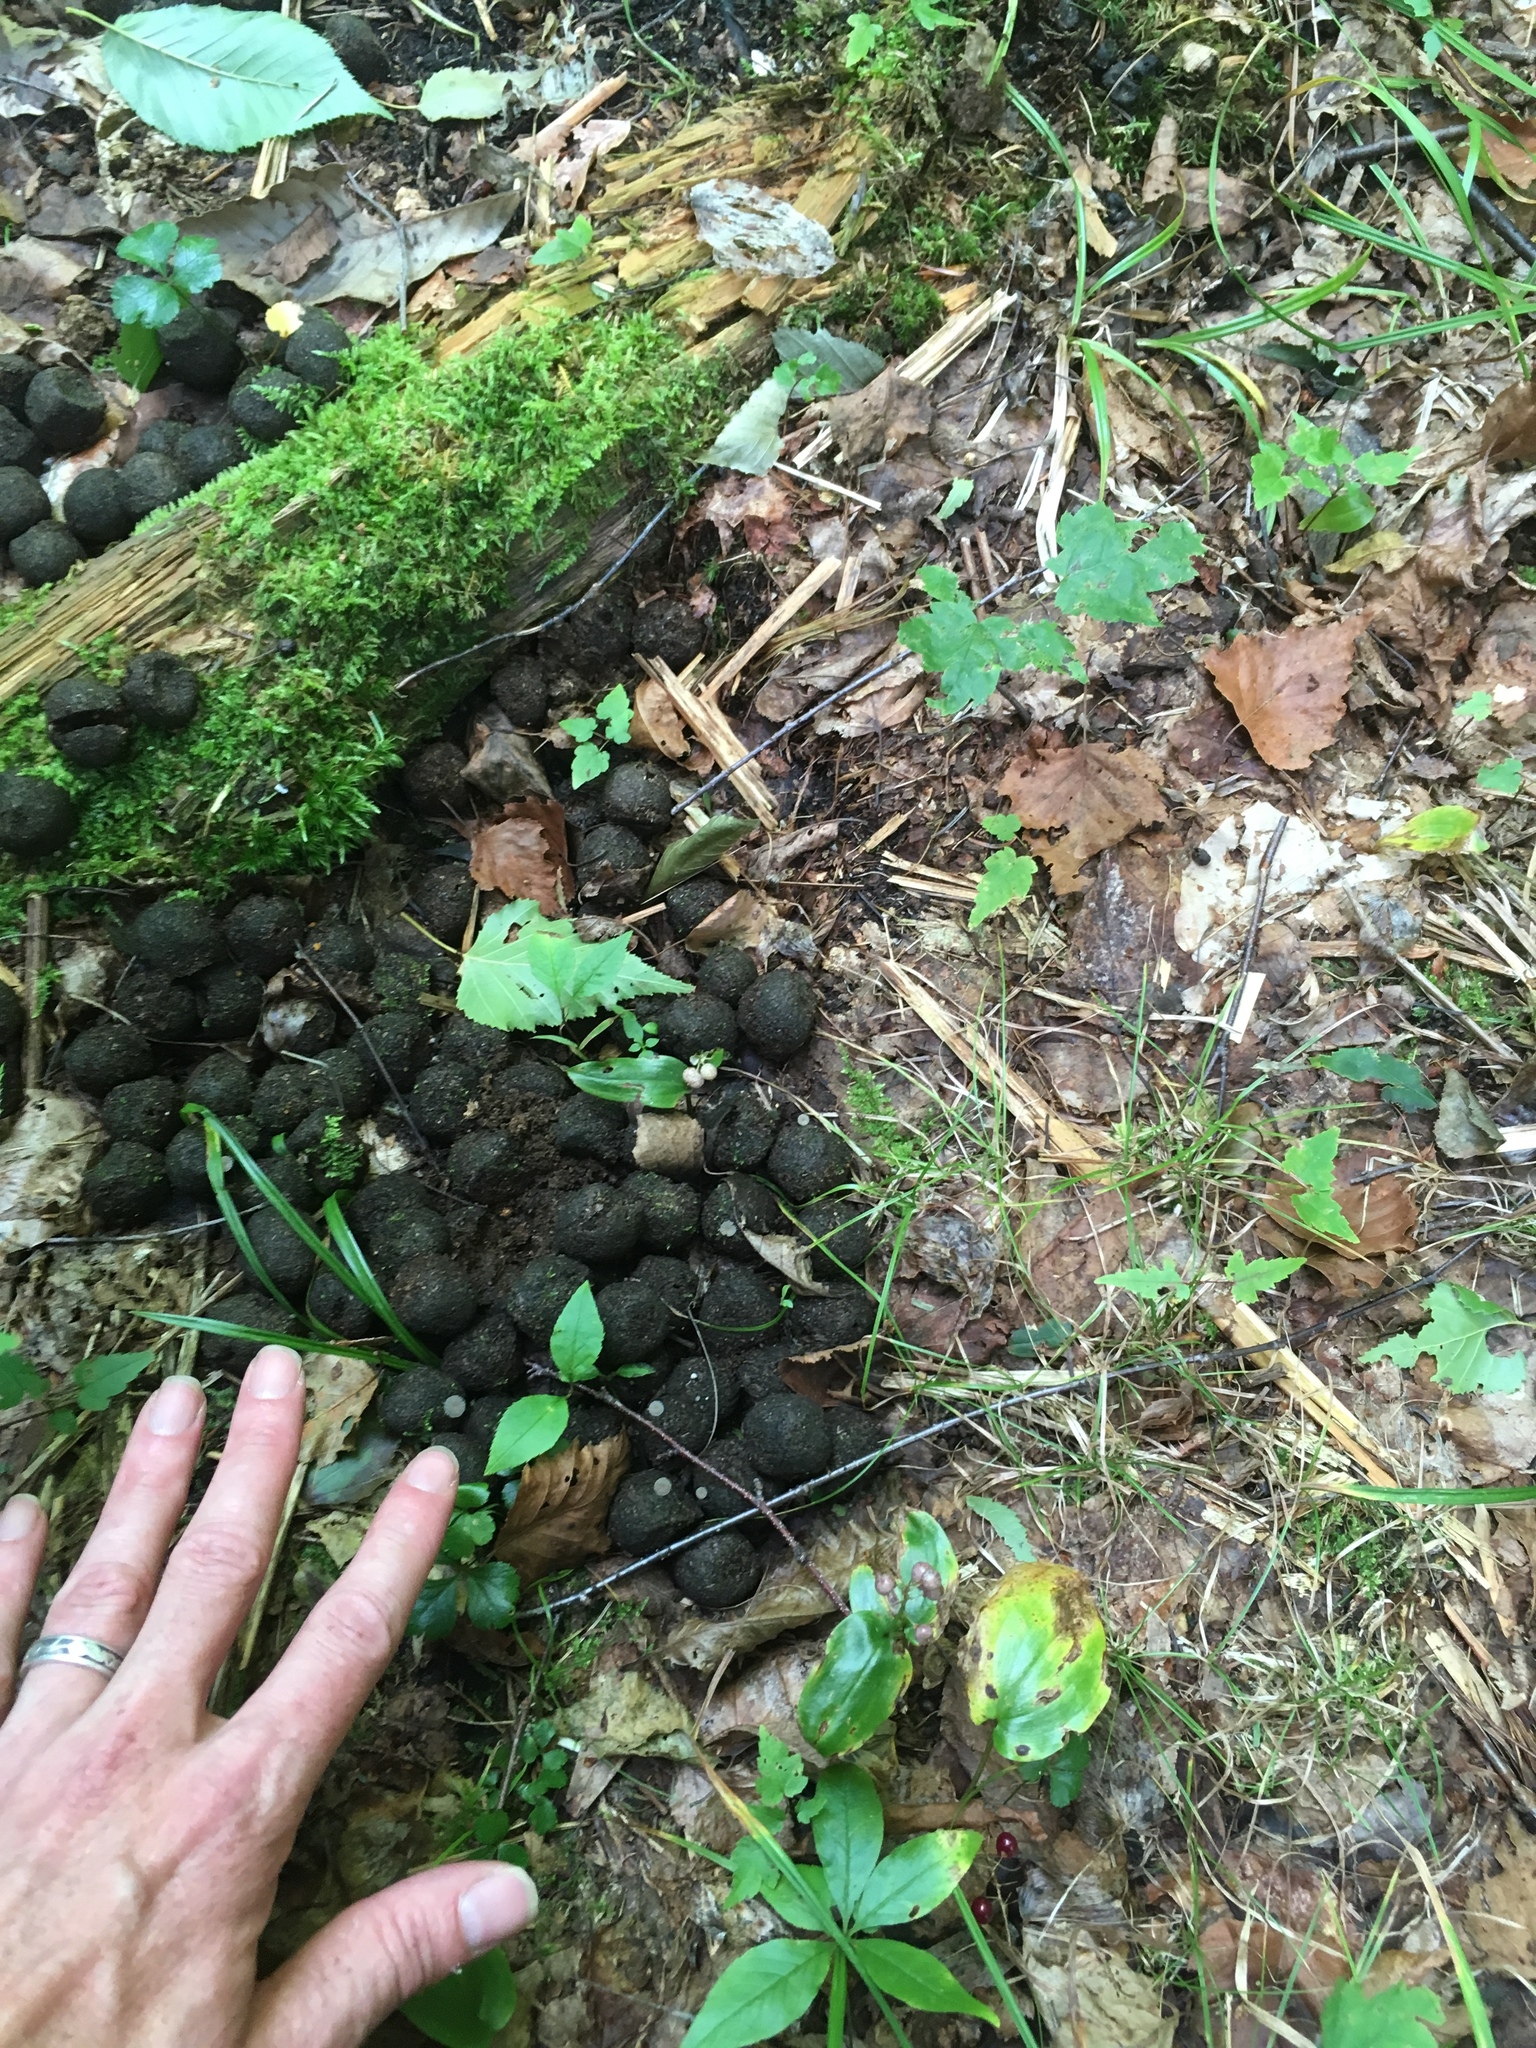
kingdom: Animalia
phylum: Chordata
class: Mammalia
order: Artiodactyla
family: Cervidae
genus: Alces
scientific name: Alces alces
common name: Moose
